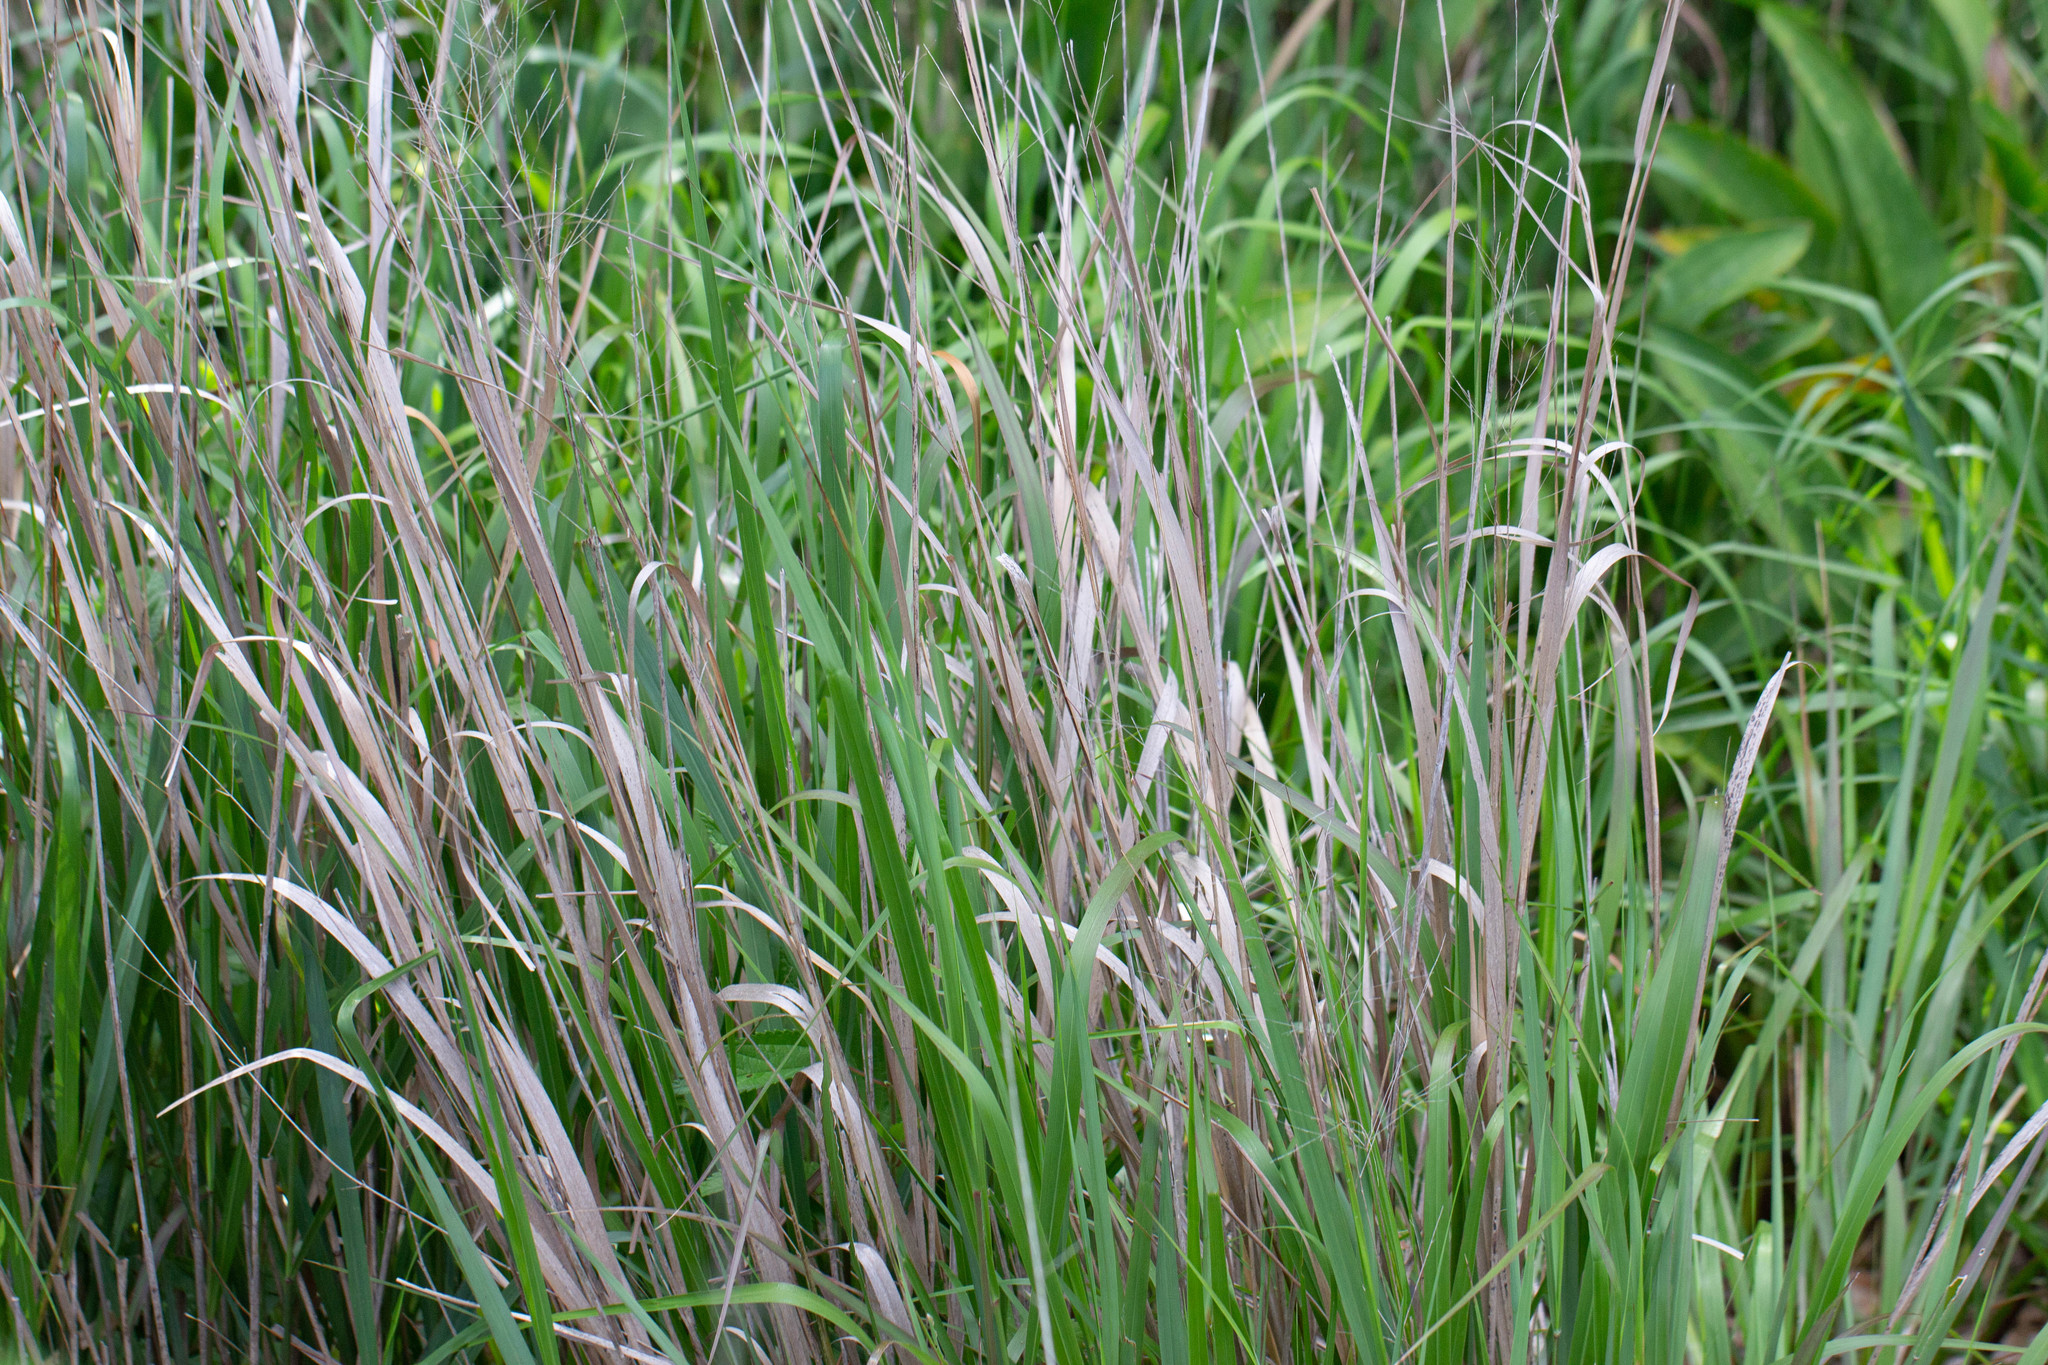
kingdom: Plantae
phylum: Tracheophyta
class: Liliopsida
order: Poales
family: Poaceae
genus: Panicum
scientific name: Panicum virgatum
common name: Switchgrass
